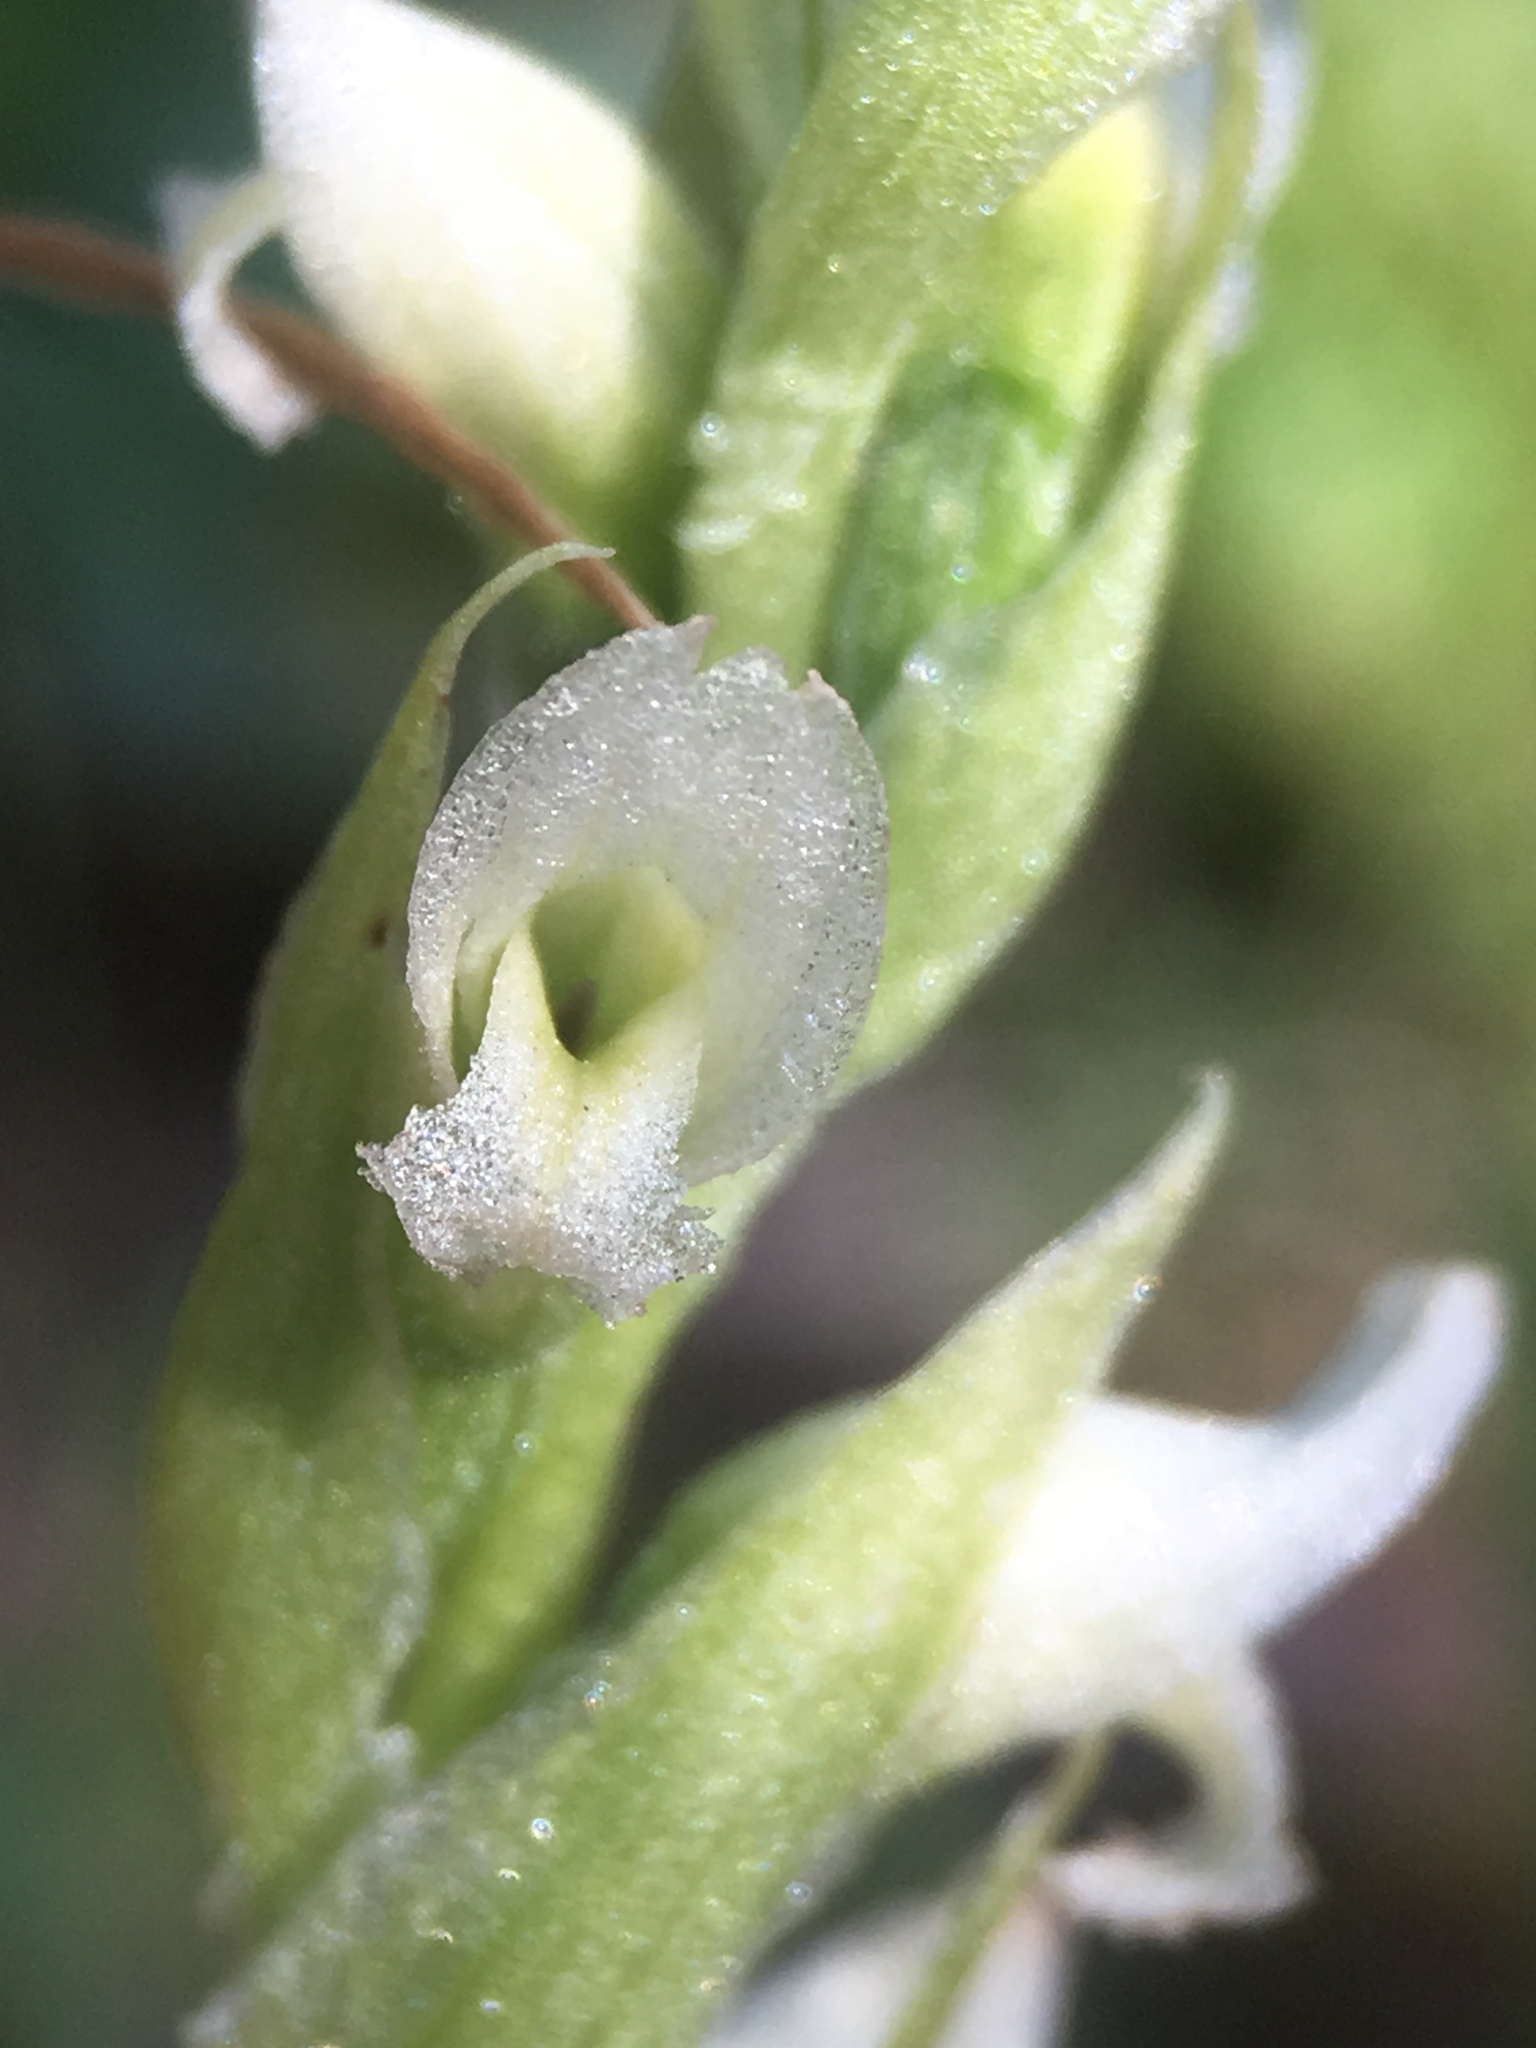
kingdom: Plantae
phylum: Tracheophyta
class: Liliopsida
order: Asparagales
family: Orchidaceae
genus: Spiranthes
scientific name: Spiranthes romanzoffiana
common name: Irish lady's-tresses
